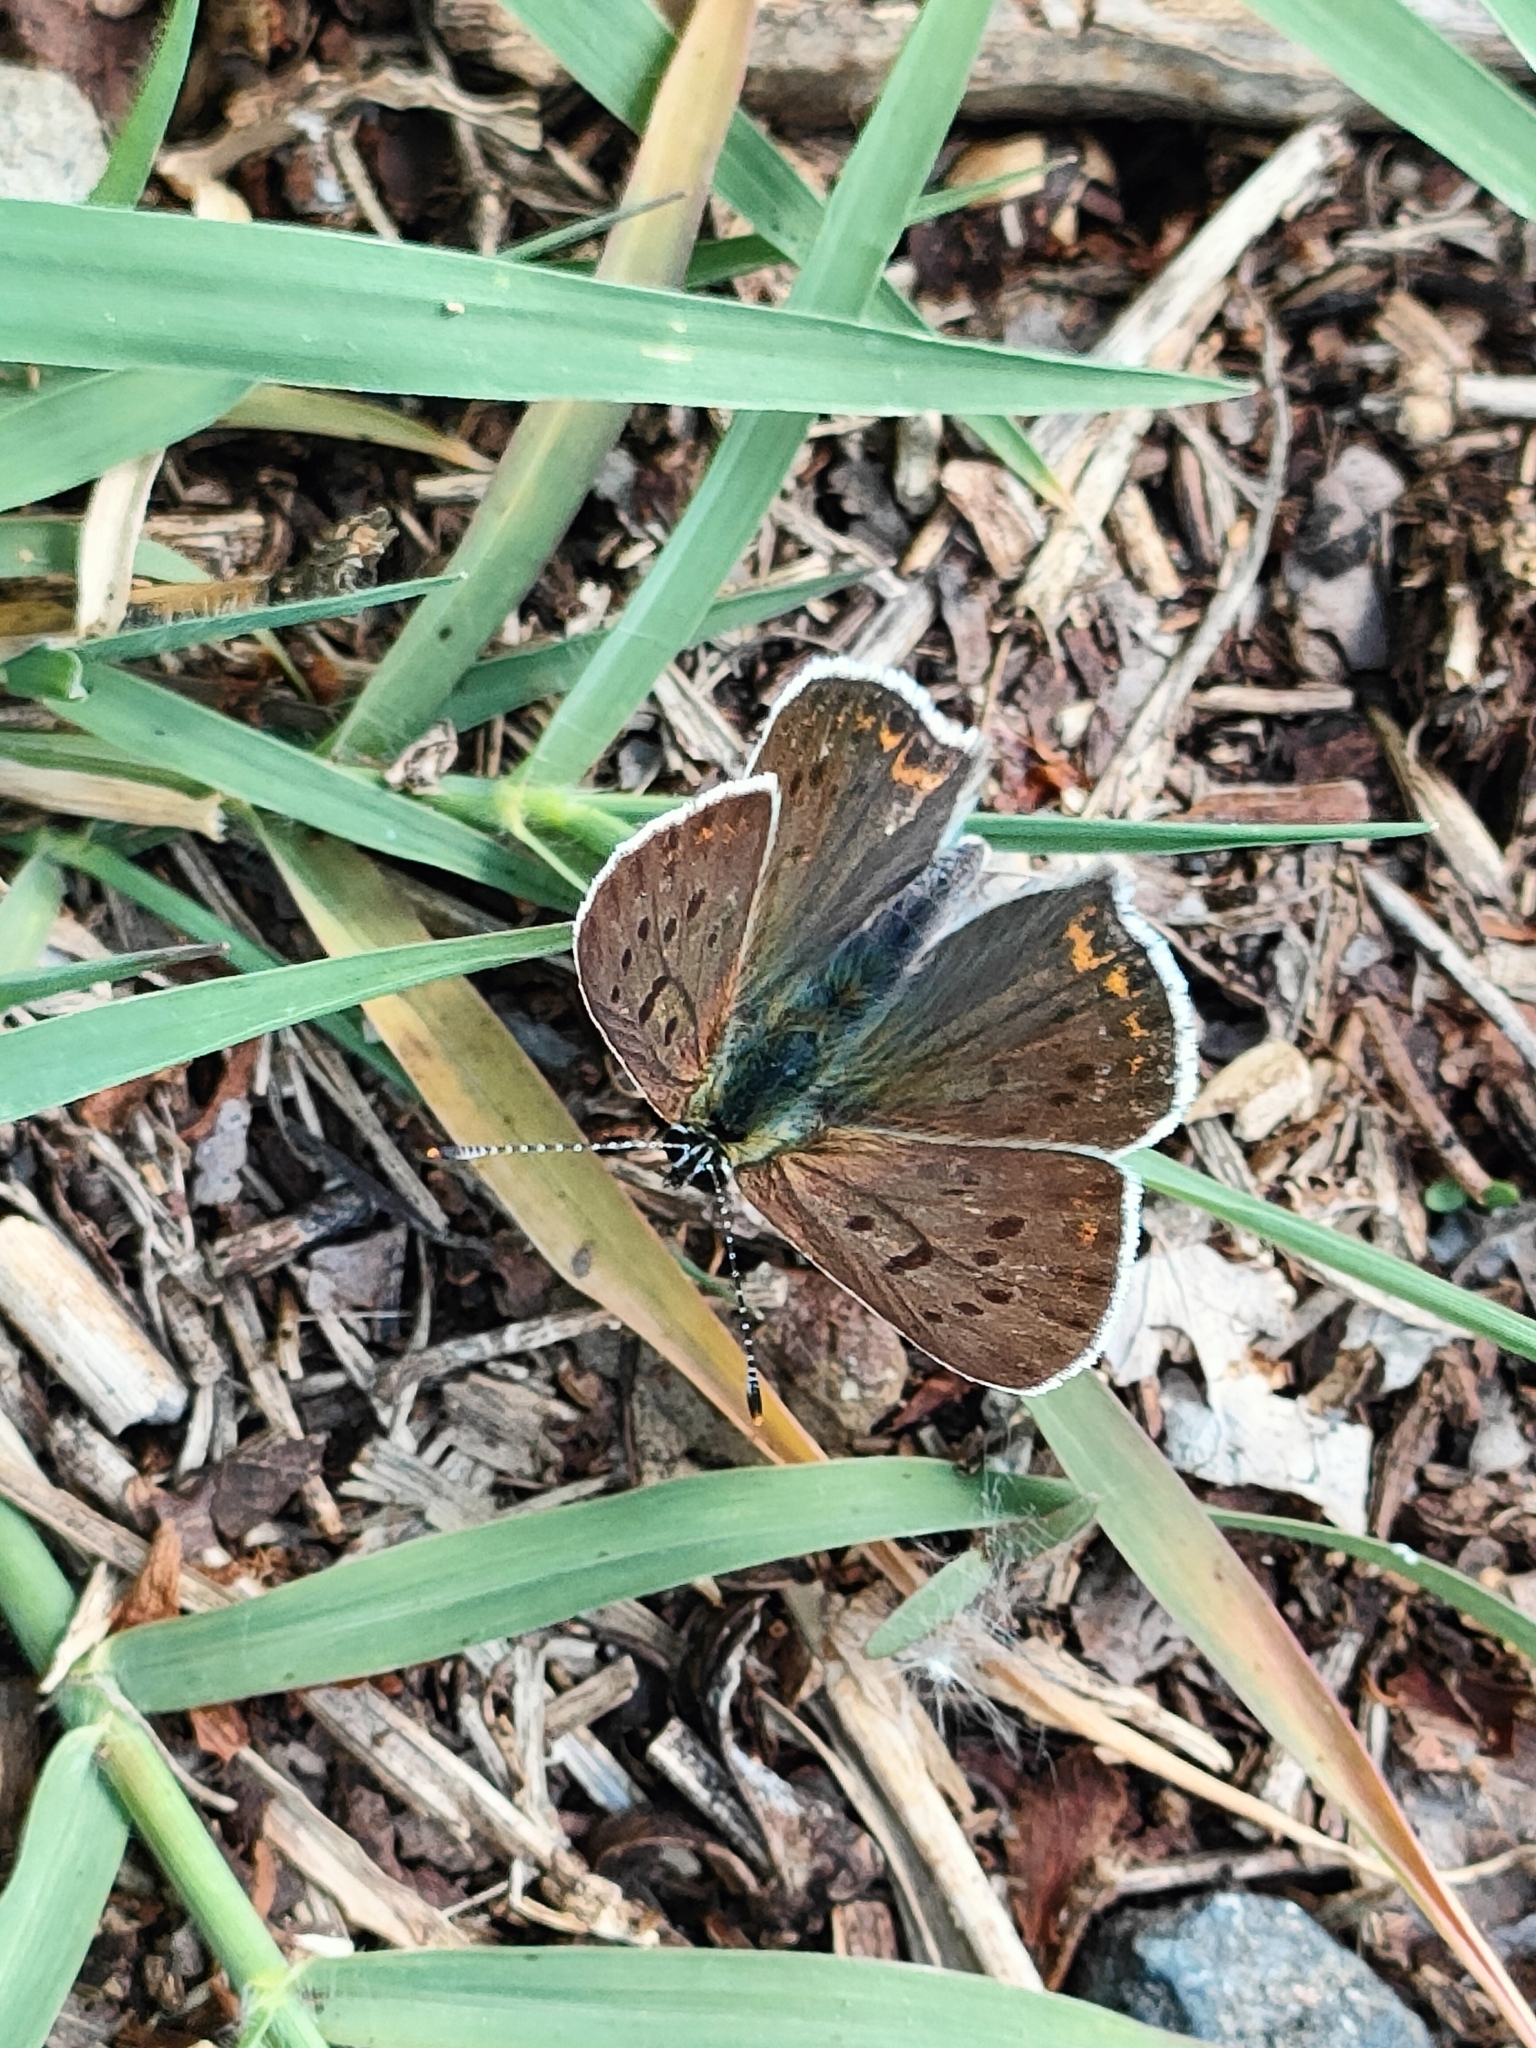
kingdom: Animalia
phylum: Arthropoda
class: Insecta
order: Lepidoptera
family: Lycaenidae
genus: Loweia
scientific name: Loweia tityrus
